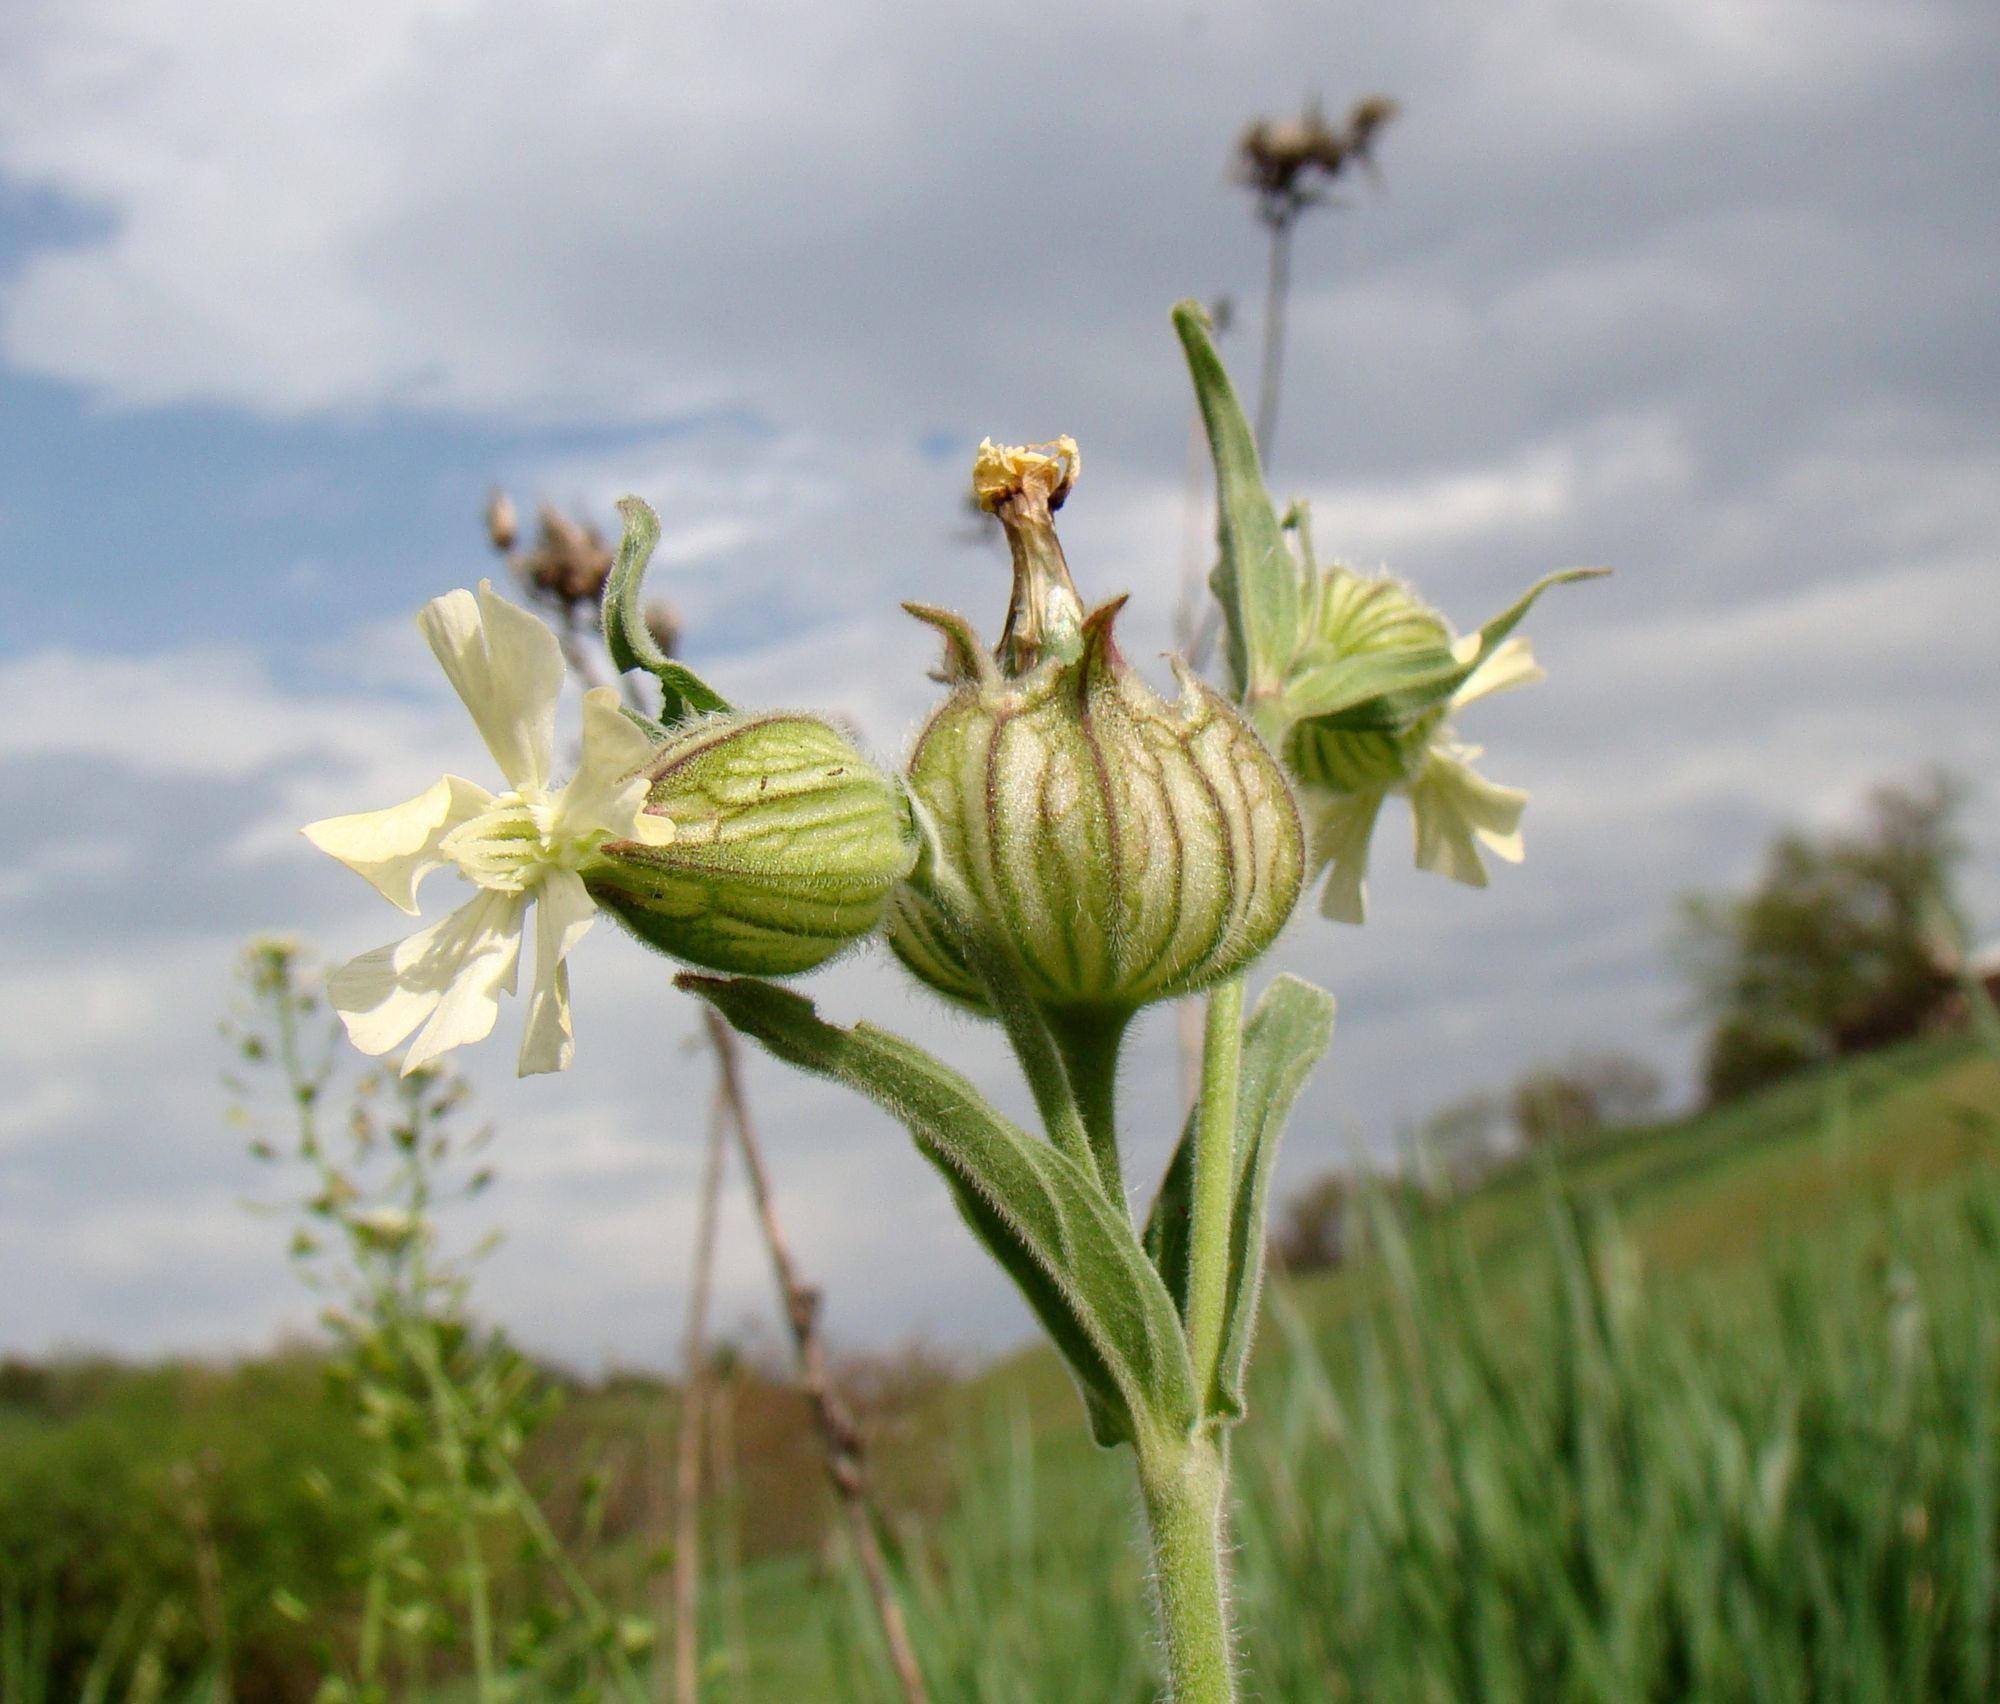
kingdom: Plantae
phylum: Tracheophyta
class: Magnoliopsida
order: Caryophyllales
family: Caryophyllaceae
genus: Silene
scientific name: Silene latifolia
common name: White campion
